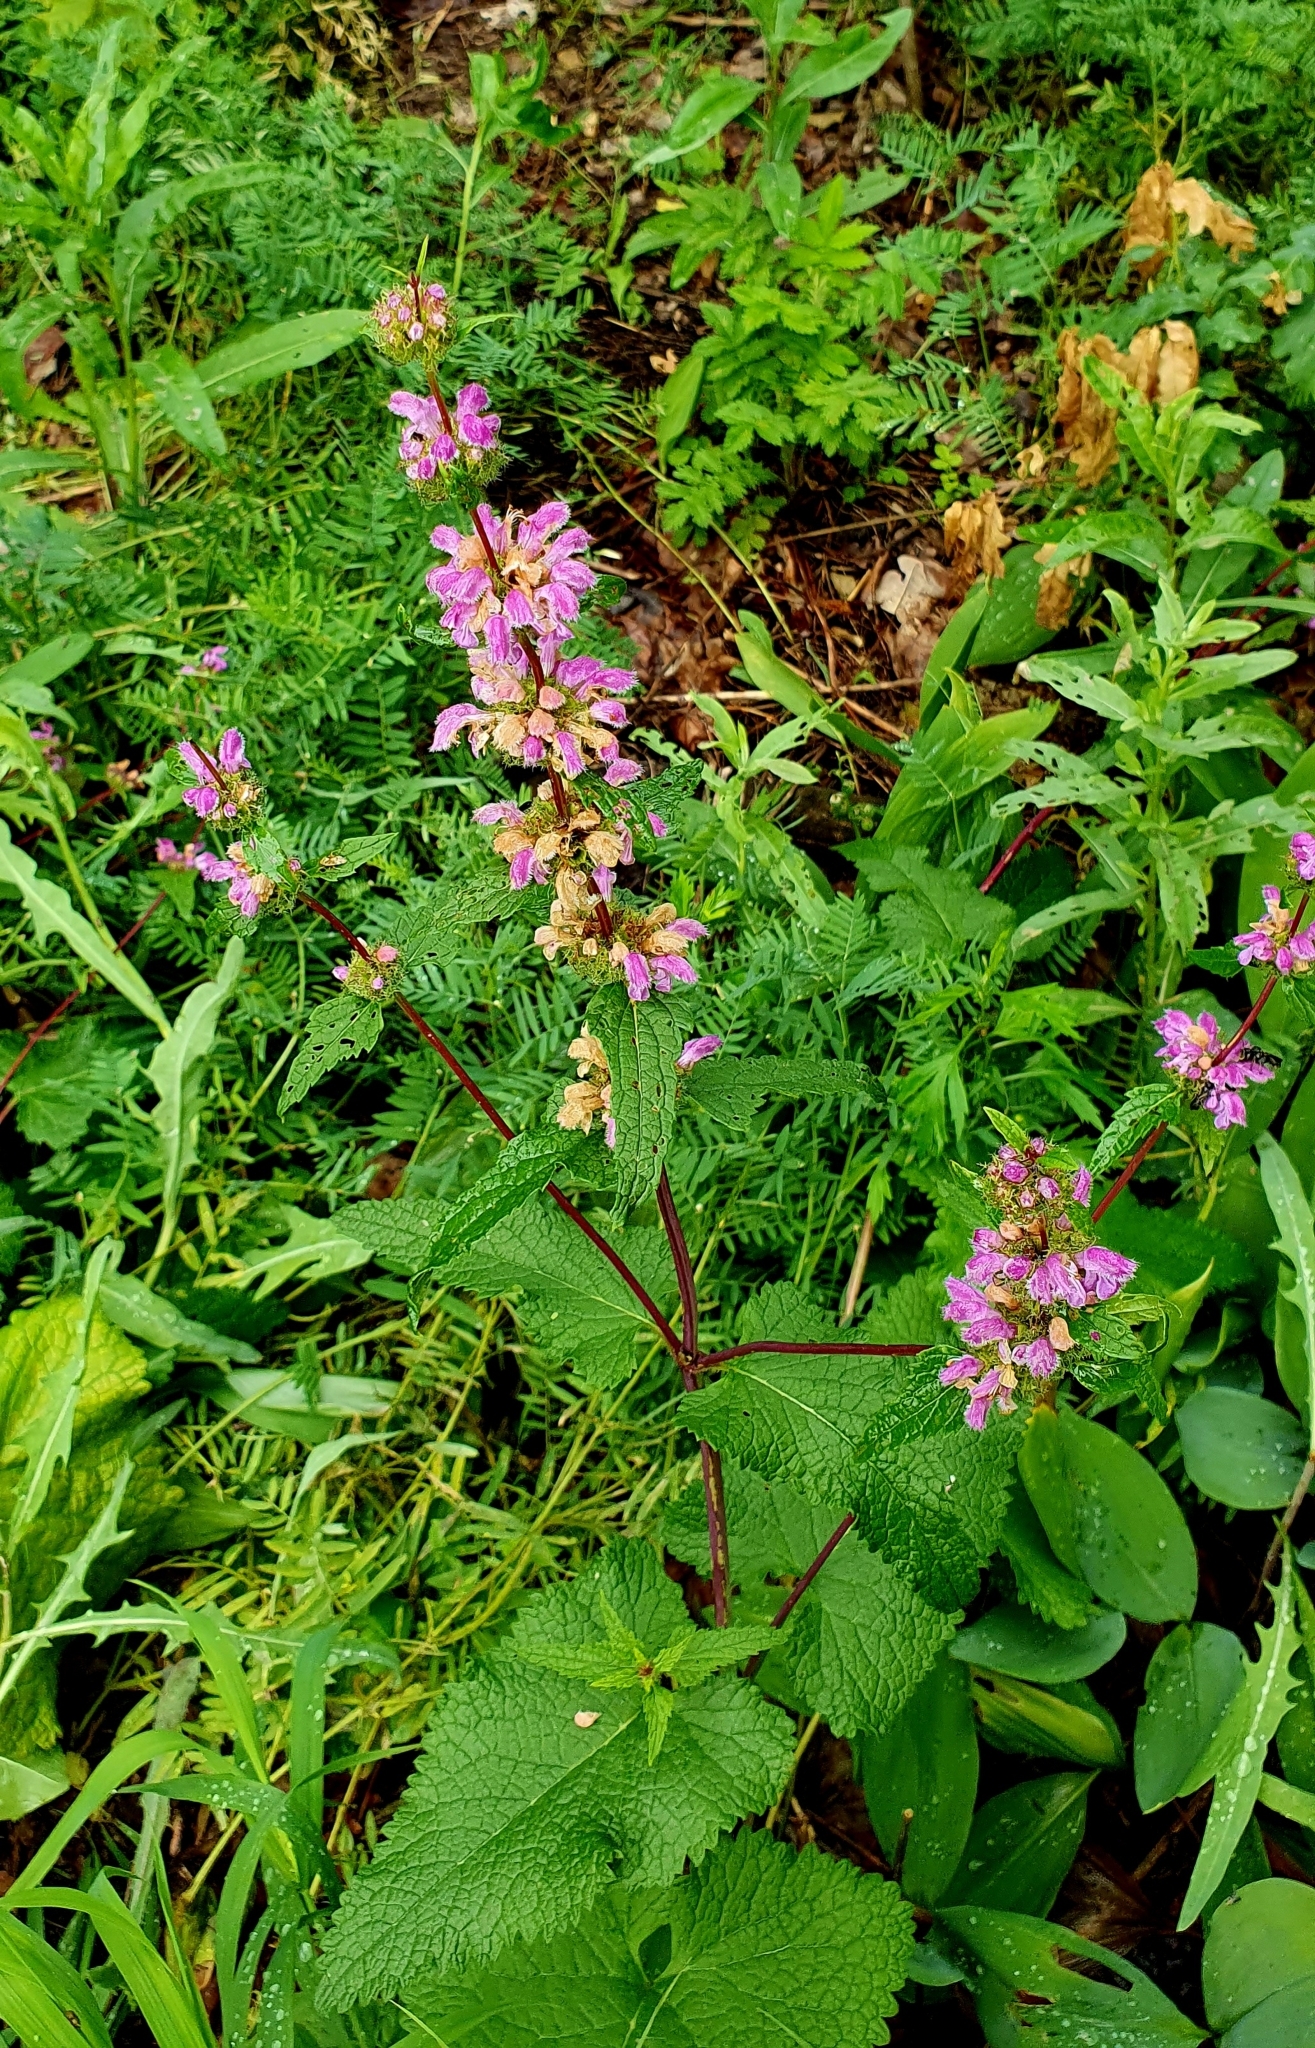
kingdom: Plantae
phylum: Tracheophyta
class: Magnoliopsida
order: Lamiales
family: Lamiaceae
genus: Phlomoides
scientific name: Phlomoides tuberosa
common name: Tuberous jerusalem sage
